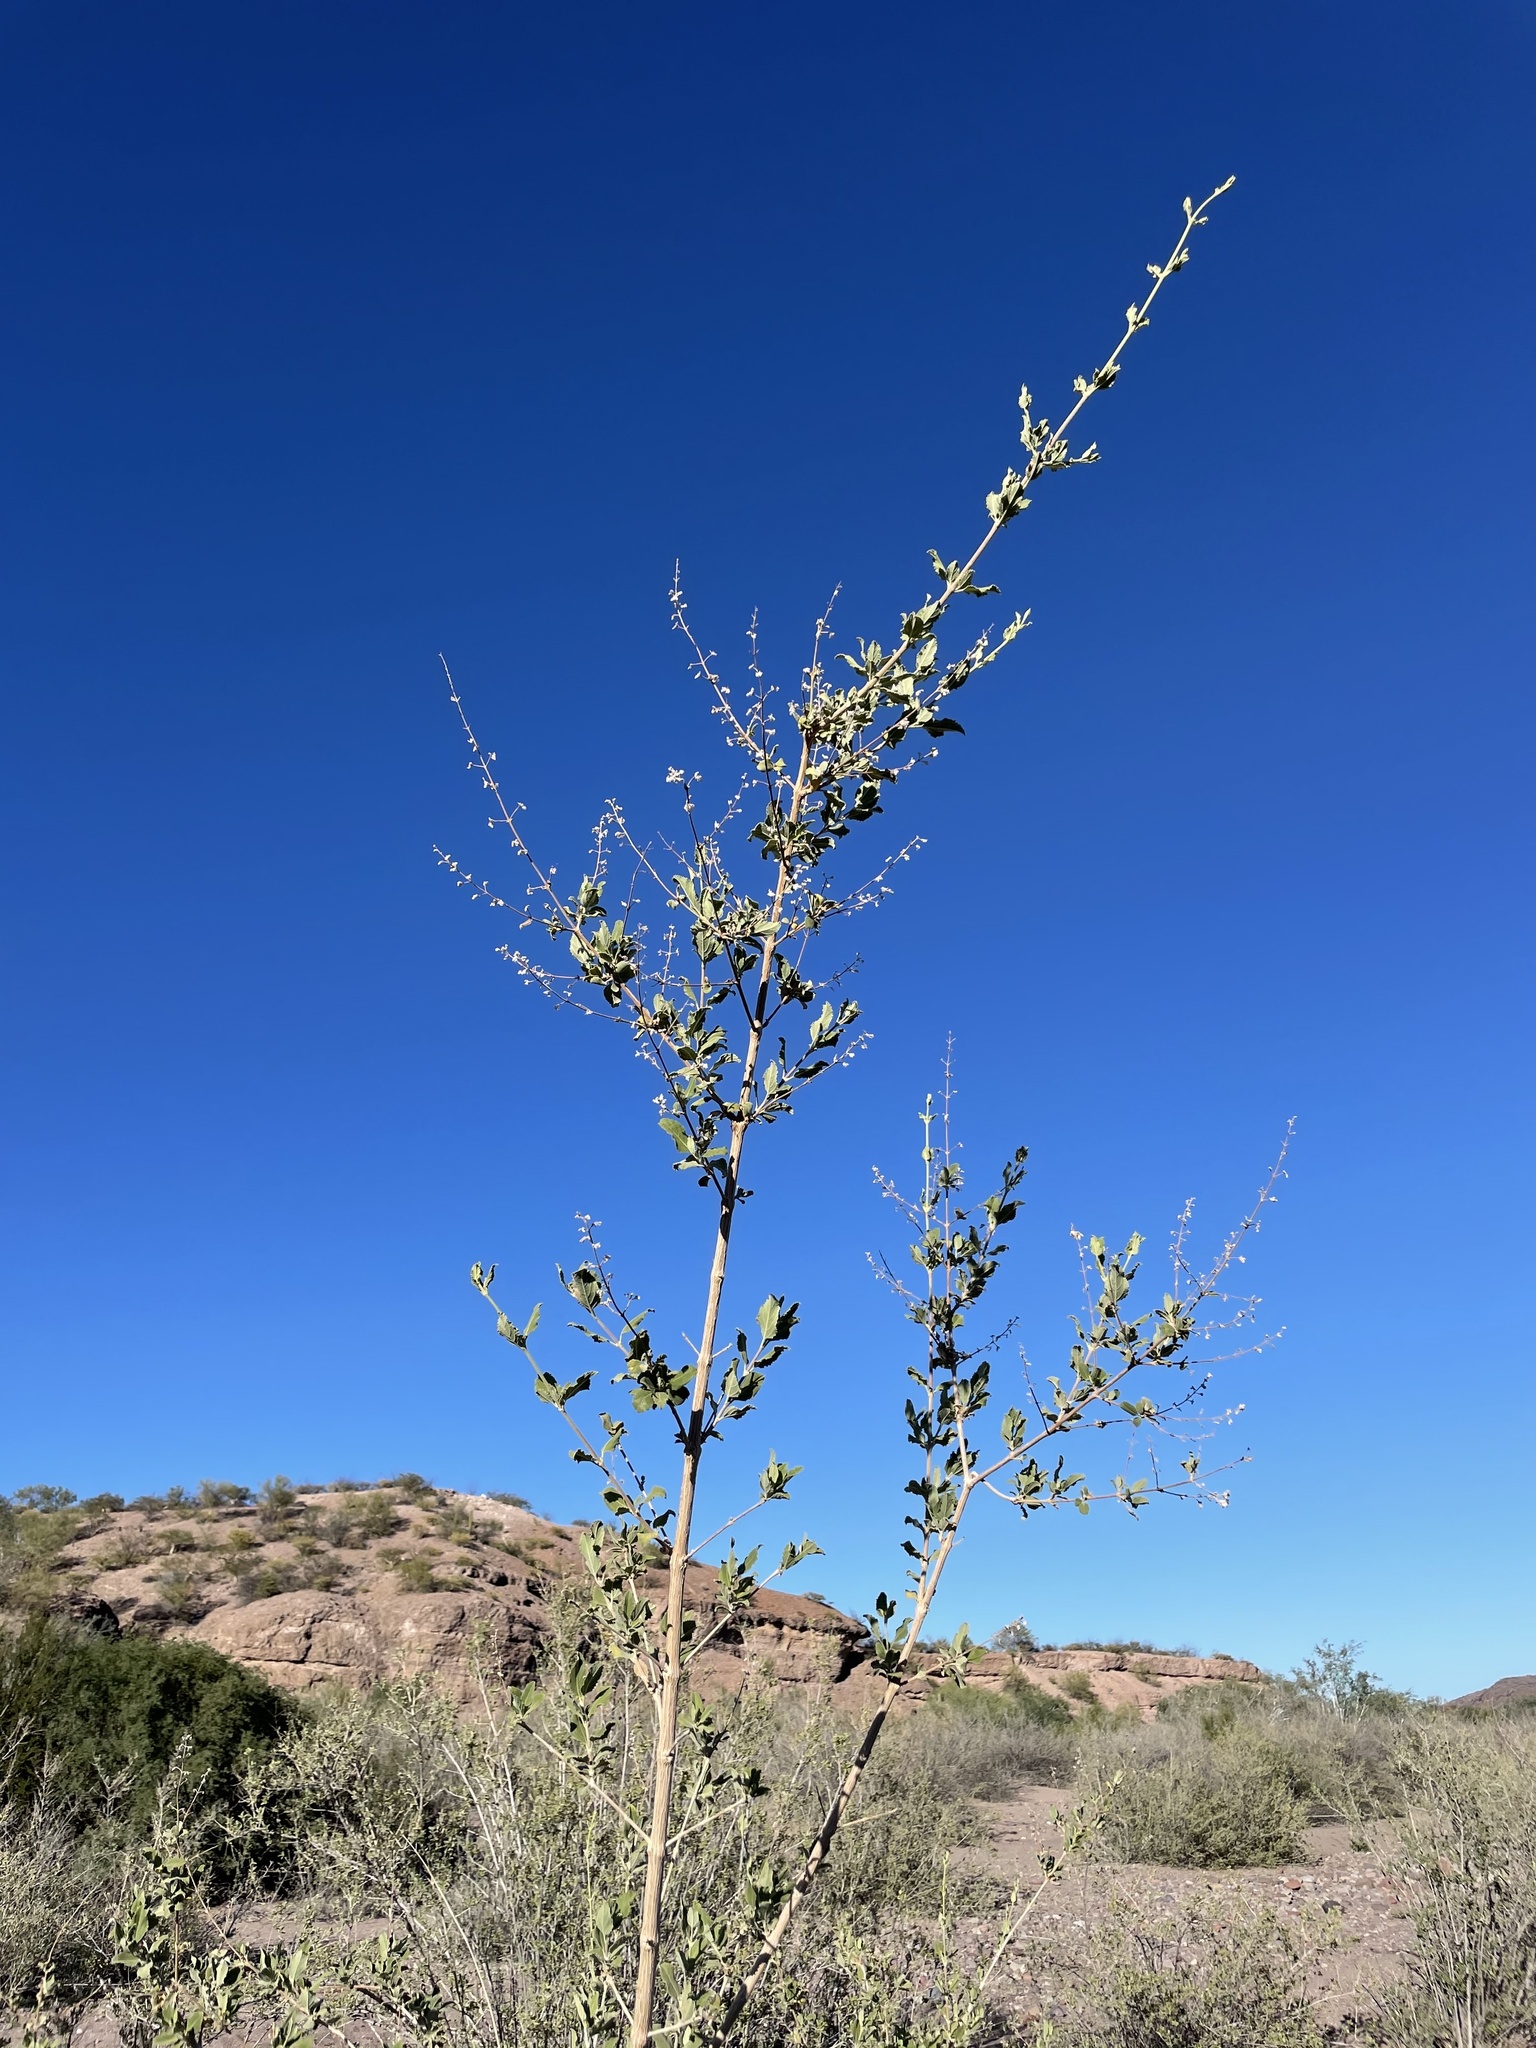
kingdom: Plantae
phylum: Tracheophyta
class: Magnoliopsida
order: Lamiales
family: Lamiaceae
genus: Condea
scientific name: Condea emoryi
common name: Chia
